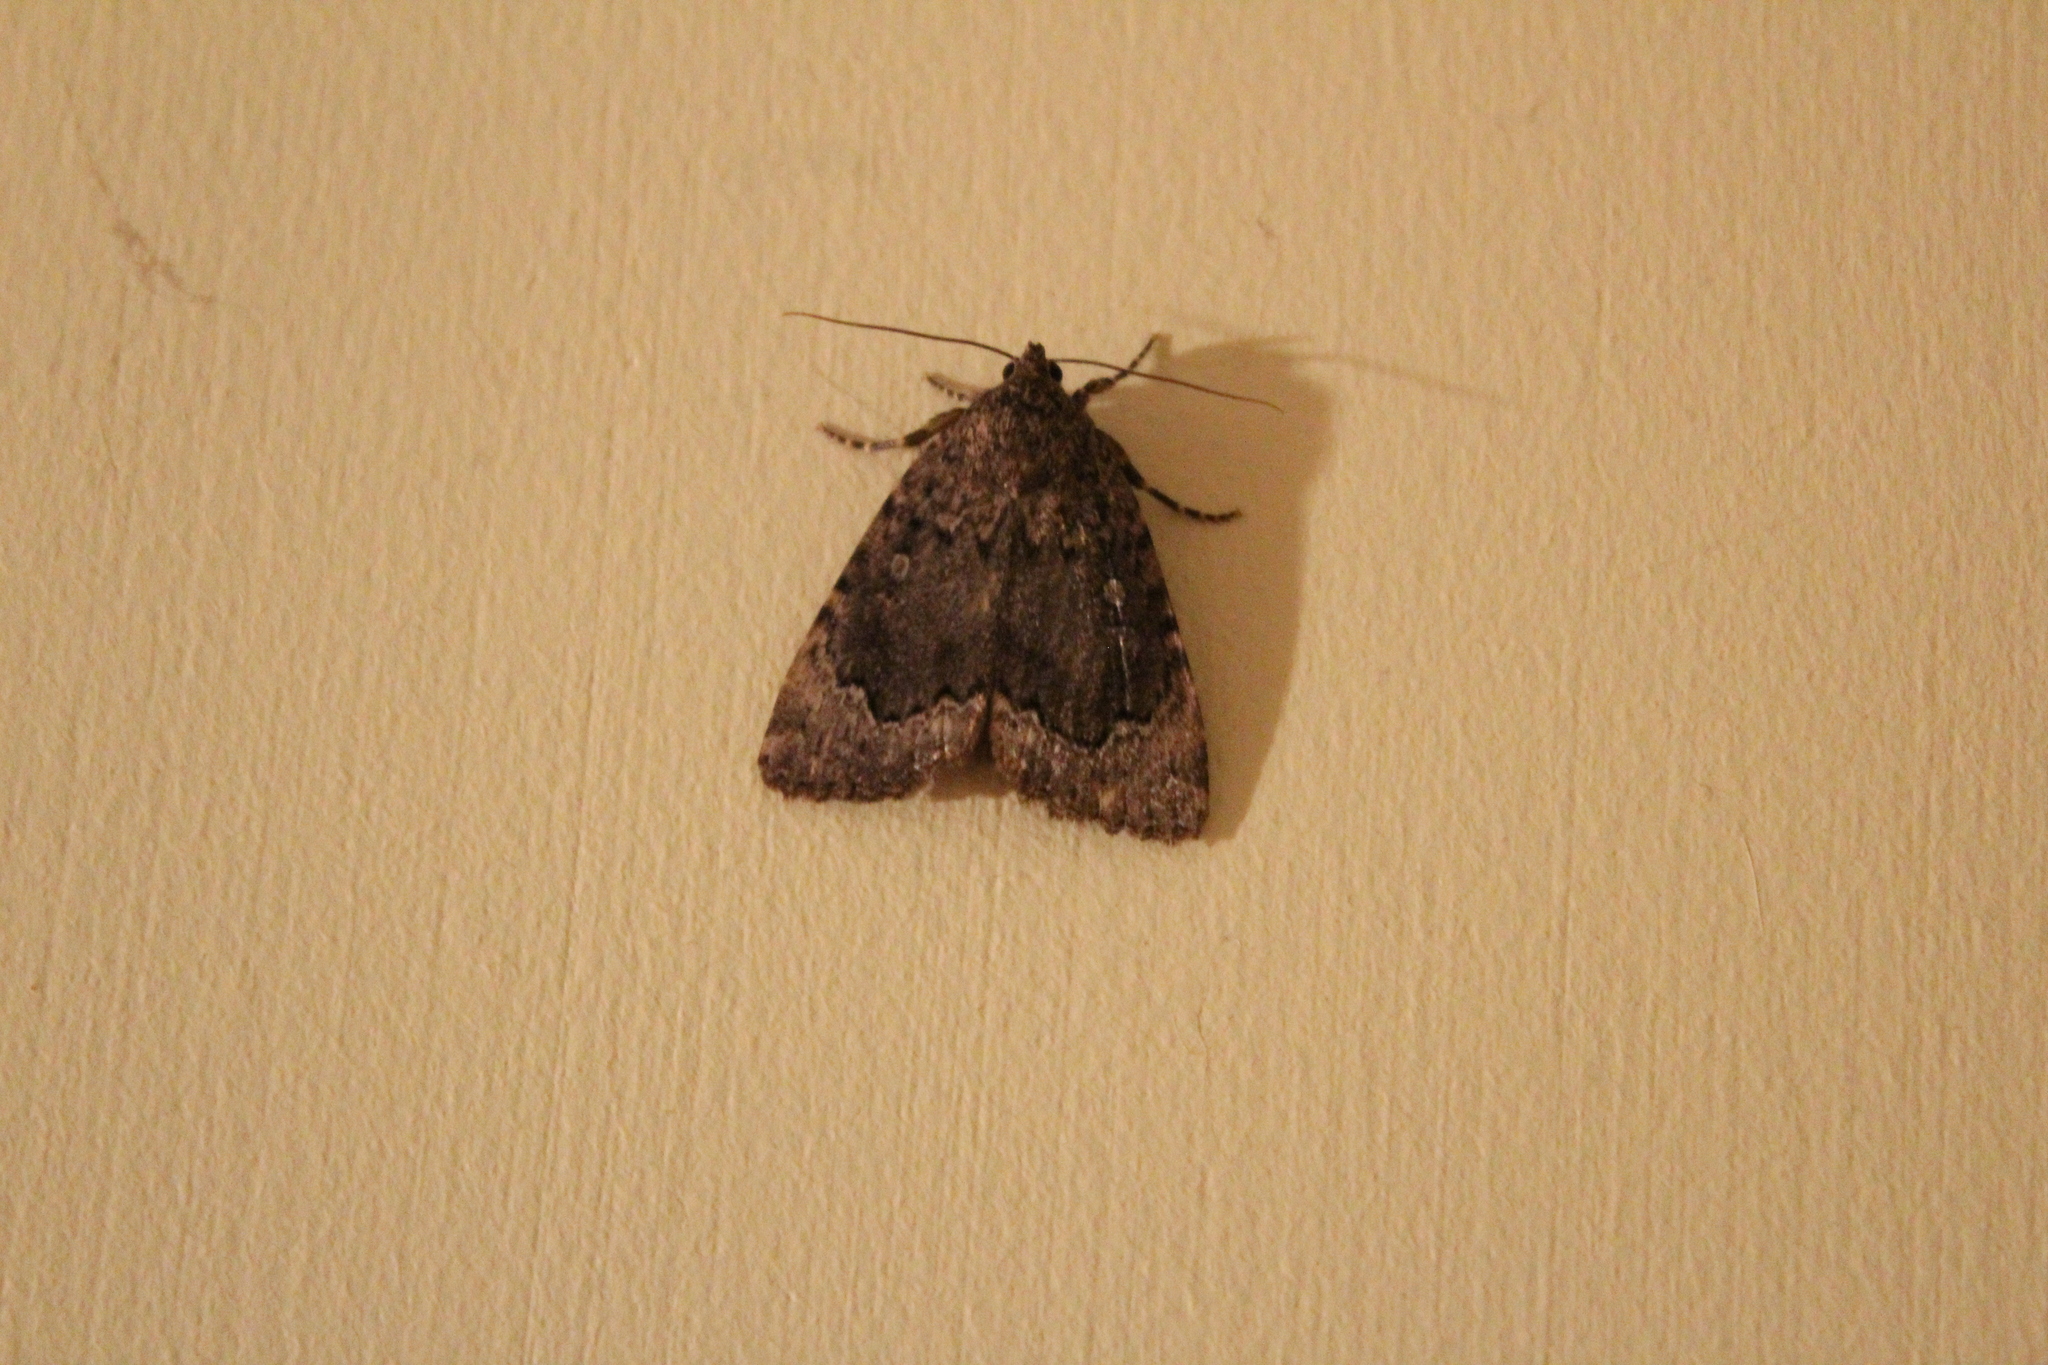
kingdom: Animalia
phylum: Arthropoda
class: Insecta
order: Lepidoptera
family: Noctuidae
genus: Amphipyra
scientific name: Amphipyra pyramidoides
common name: American copper underwing
